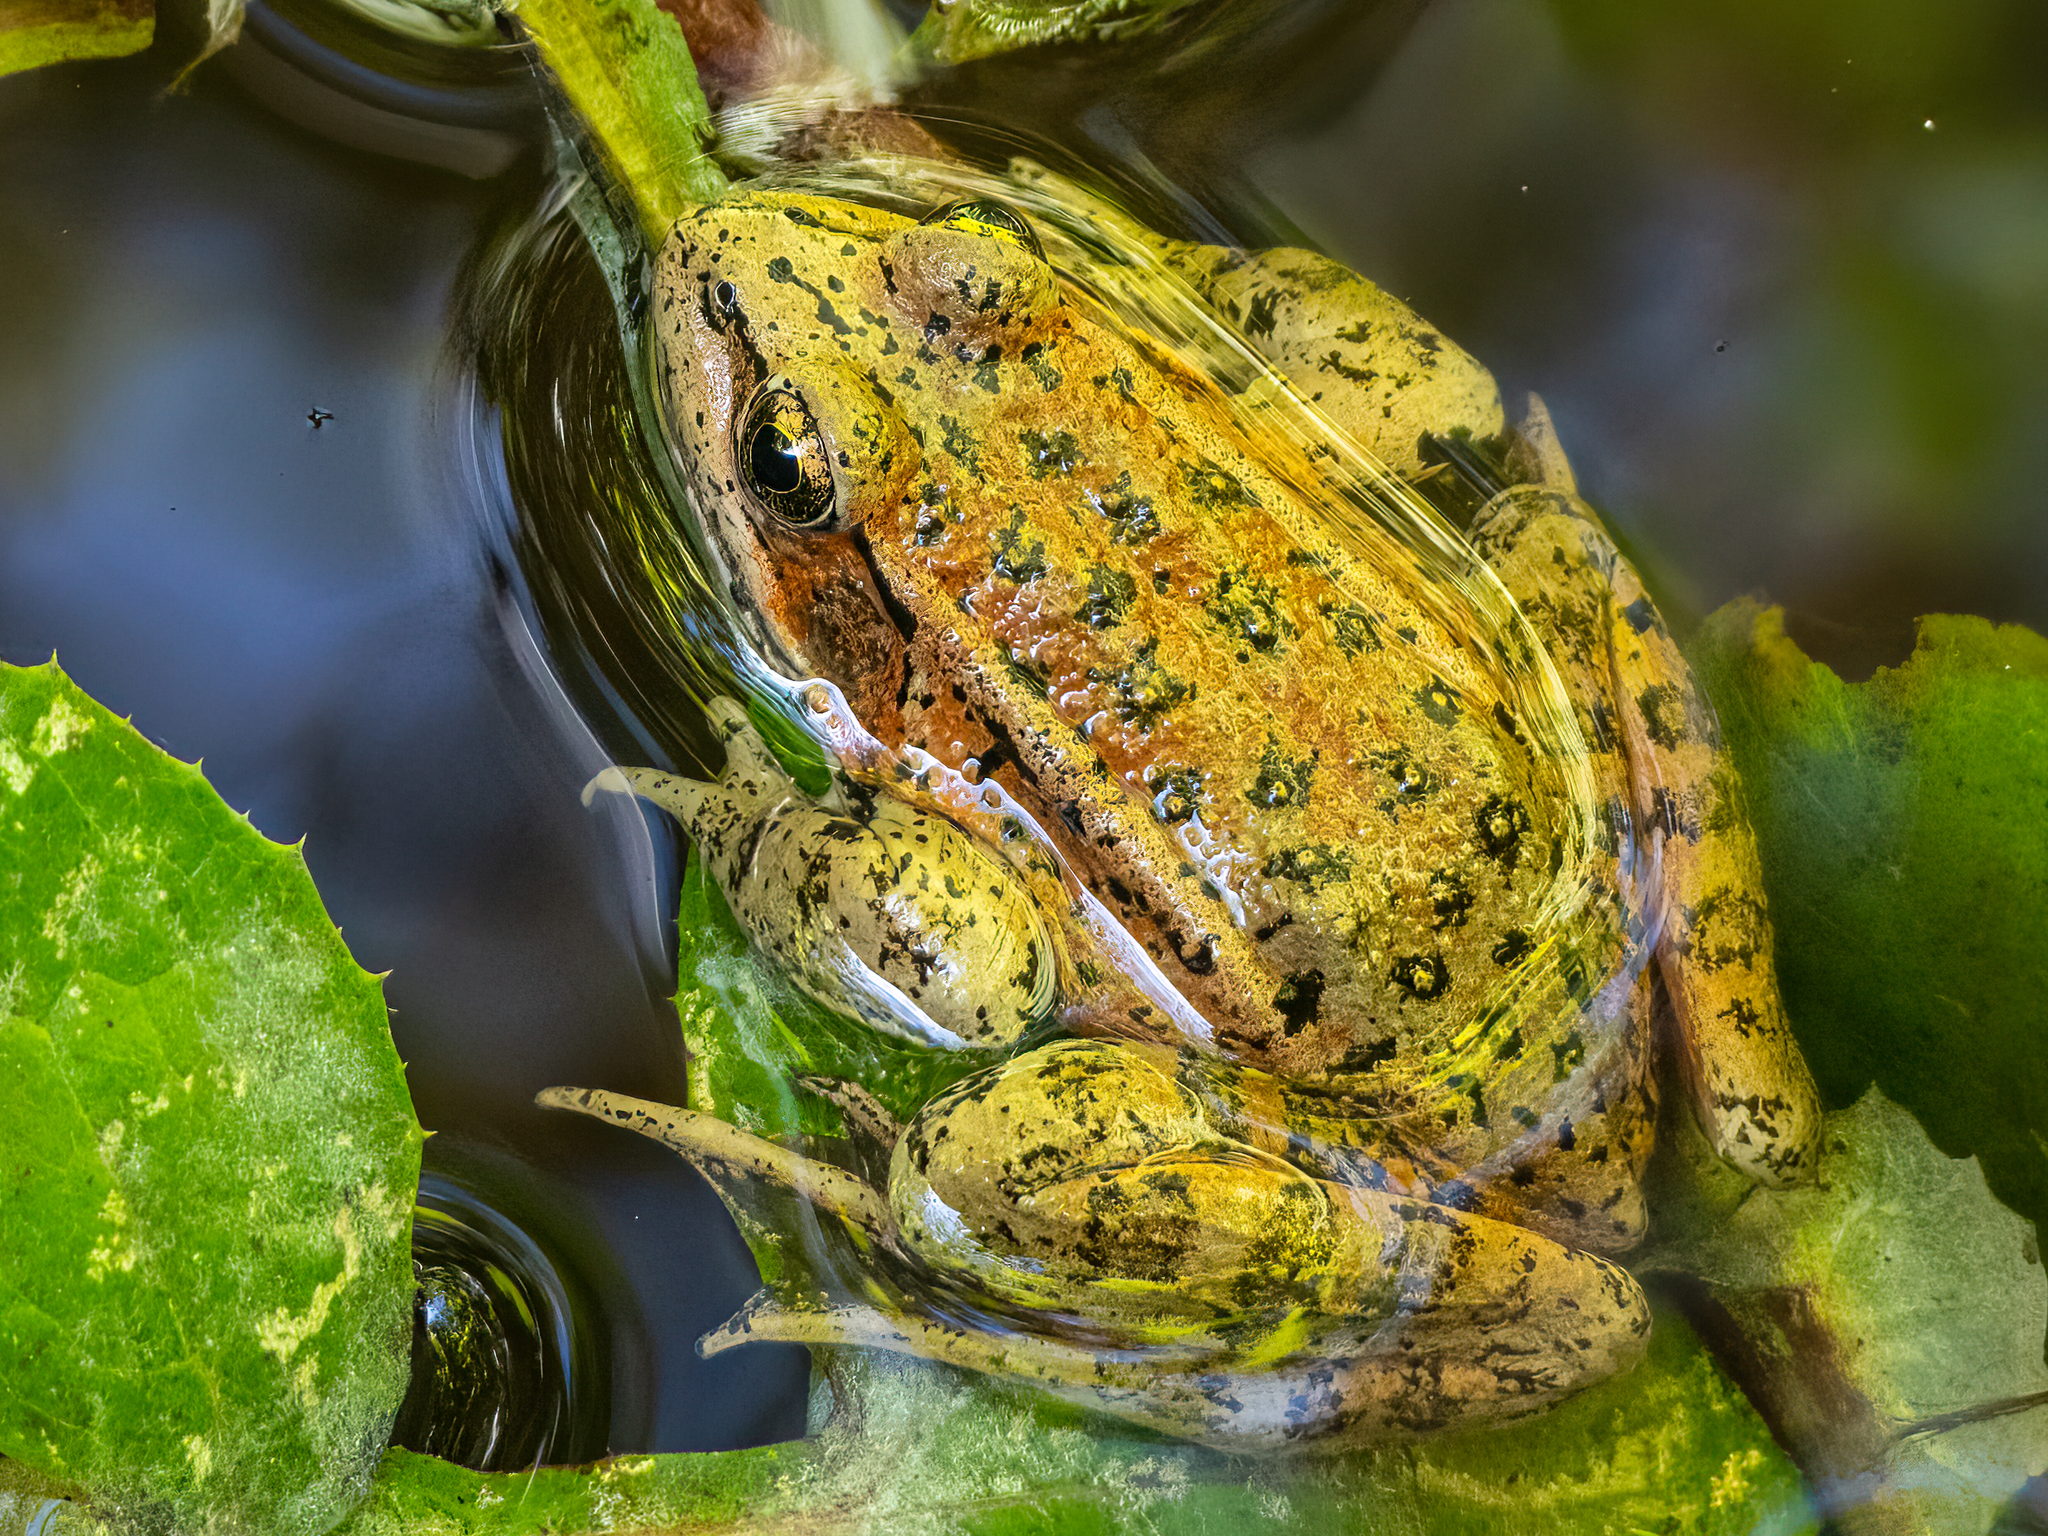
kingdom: Animalia
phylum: Chordata
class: Amphibia
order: Anura
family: Ranidae
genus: Rana
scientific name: Rana draytonii
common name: California red-legged frog
